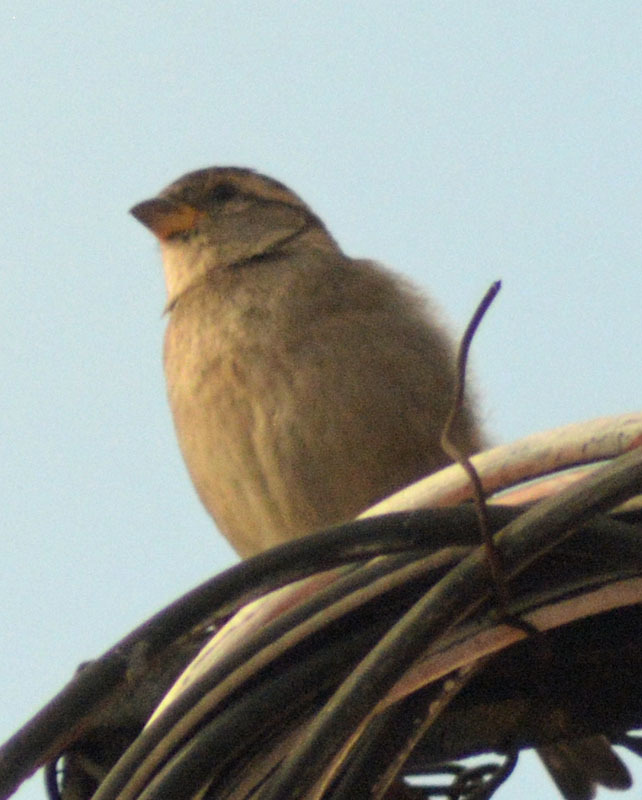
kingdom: Animalia
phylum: Chordata
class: Aves
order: Passeriformes
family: Passeridae
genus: Passer
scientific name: Passer domesticus
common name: House sparrow
